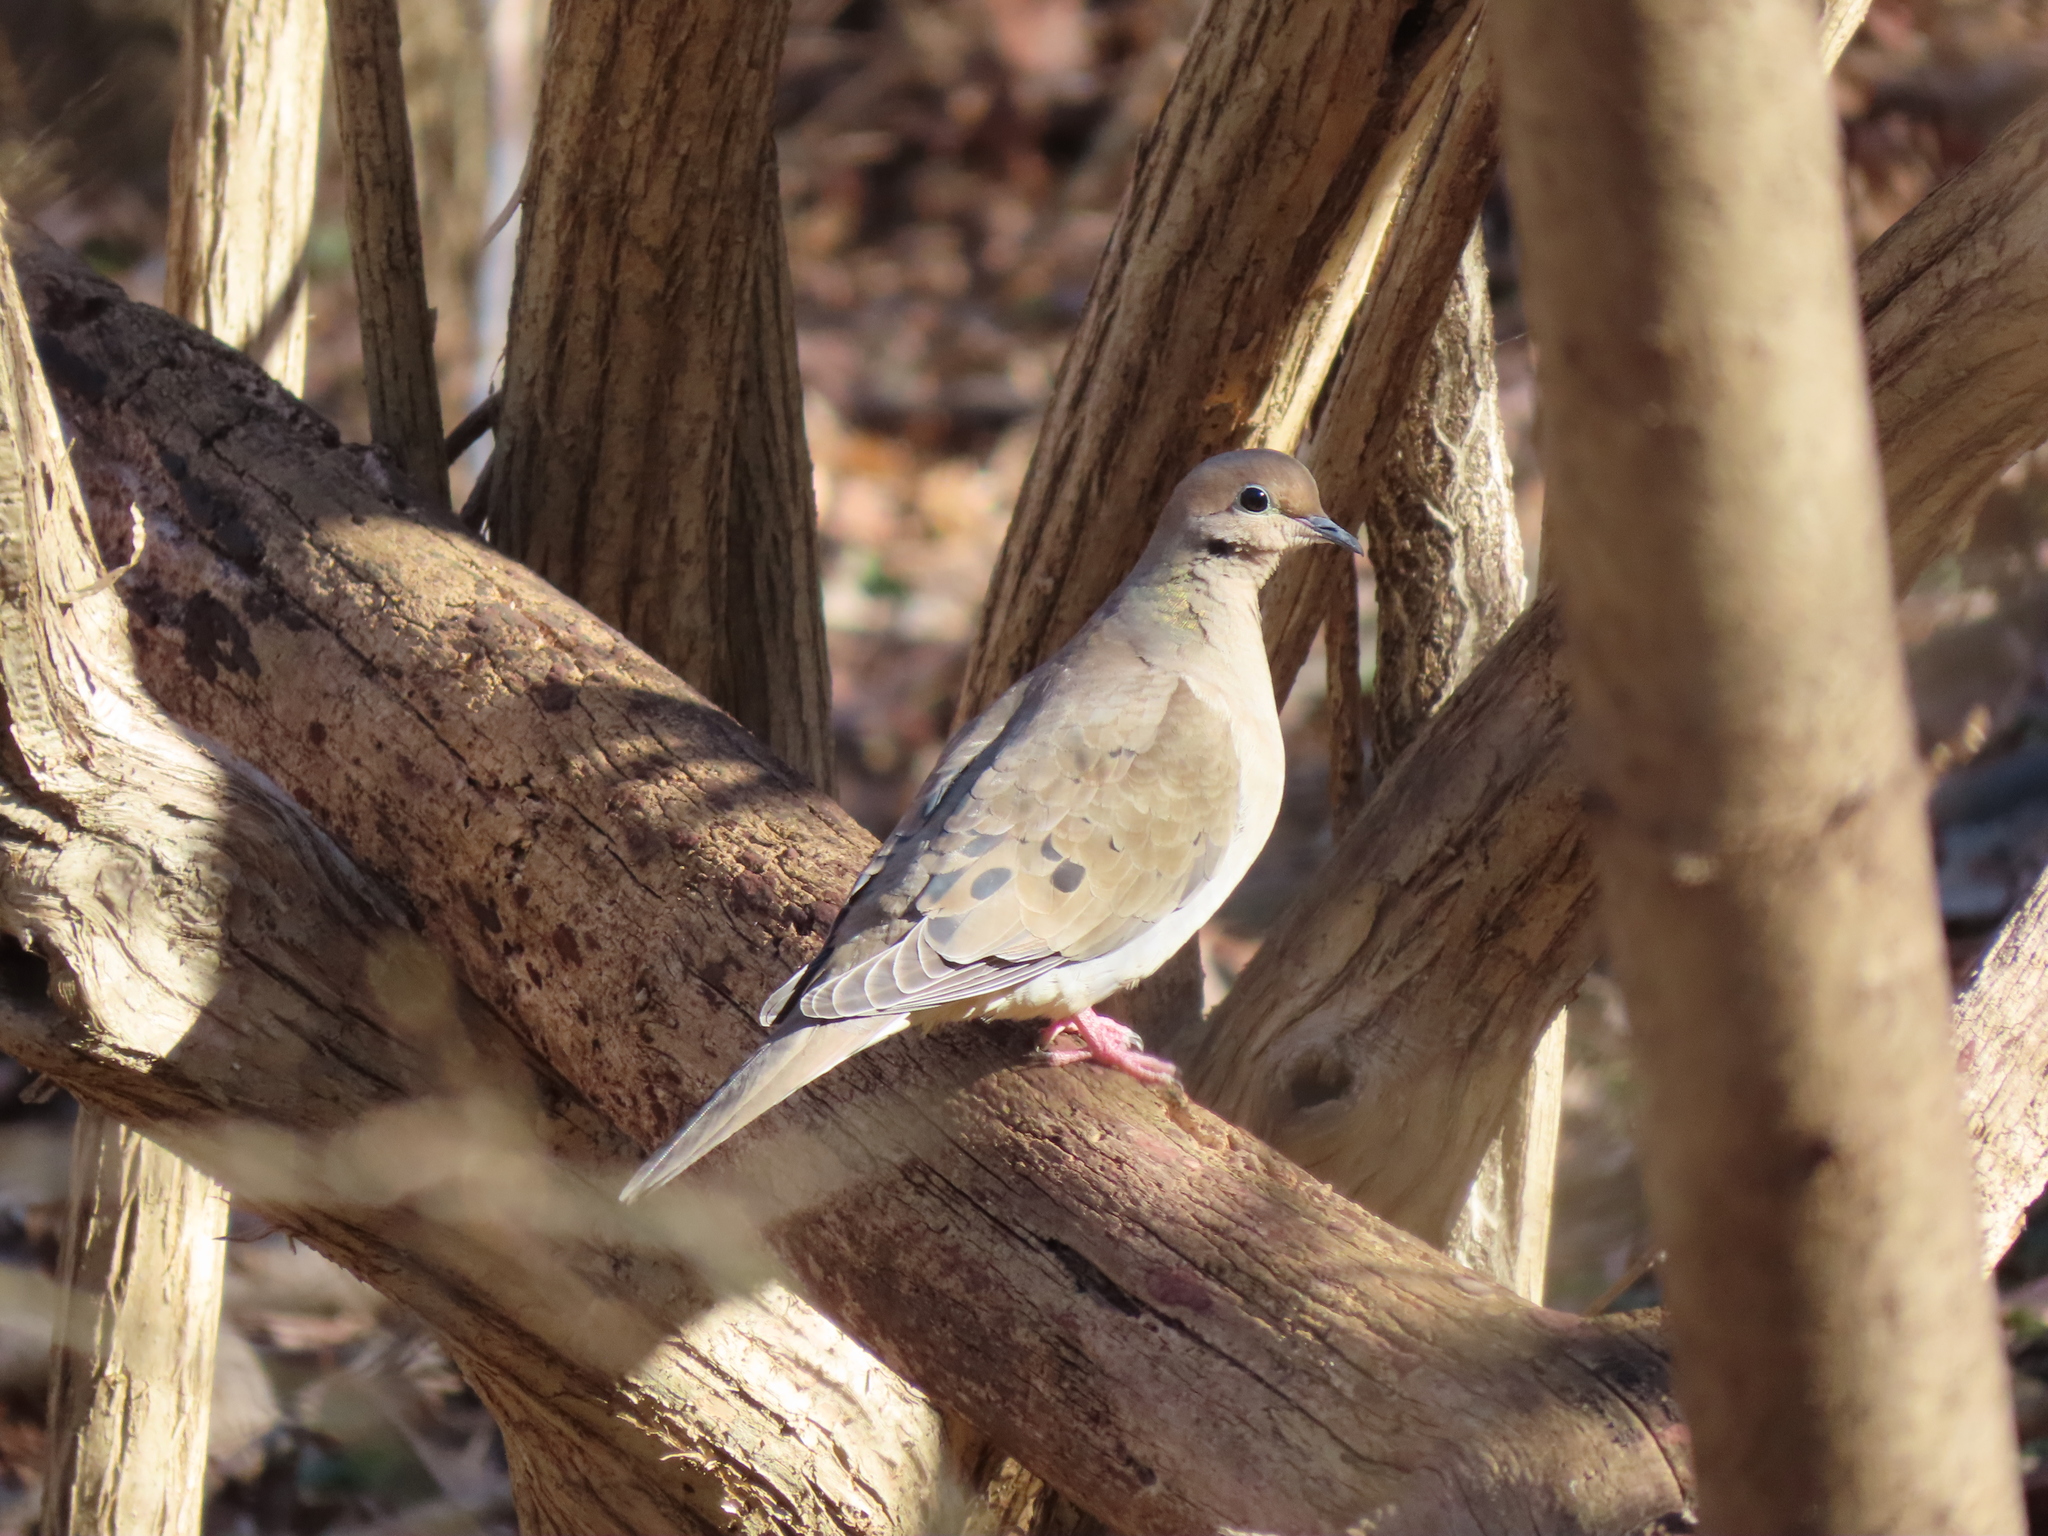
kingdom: Animalia
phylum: Chordata
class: Aves
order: Columbiformes
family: Columbidae
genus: Zenaida
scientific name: Zenaida macroura
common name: Mourning dove
